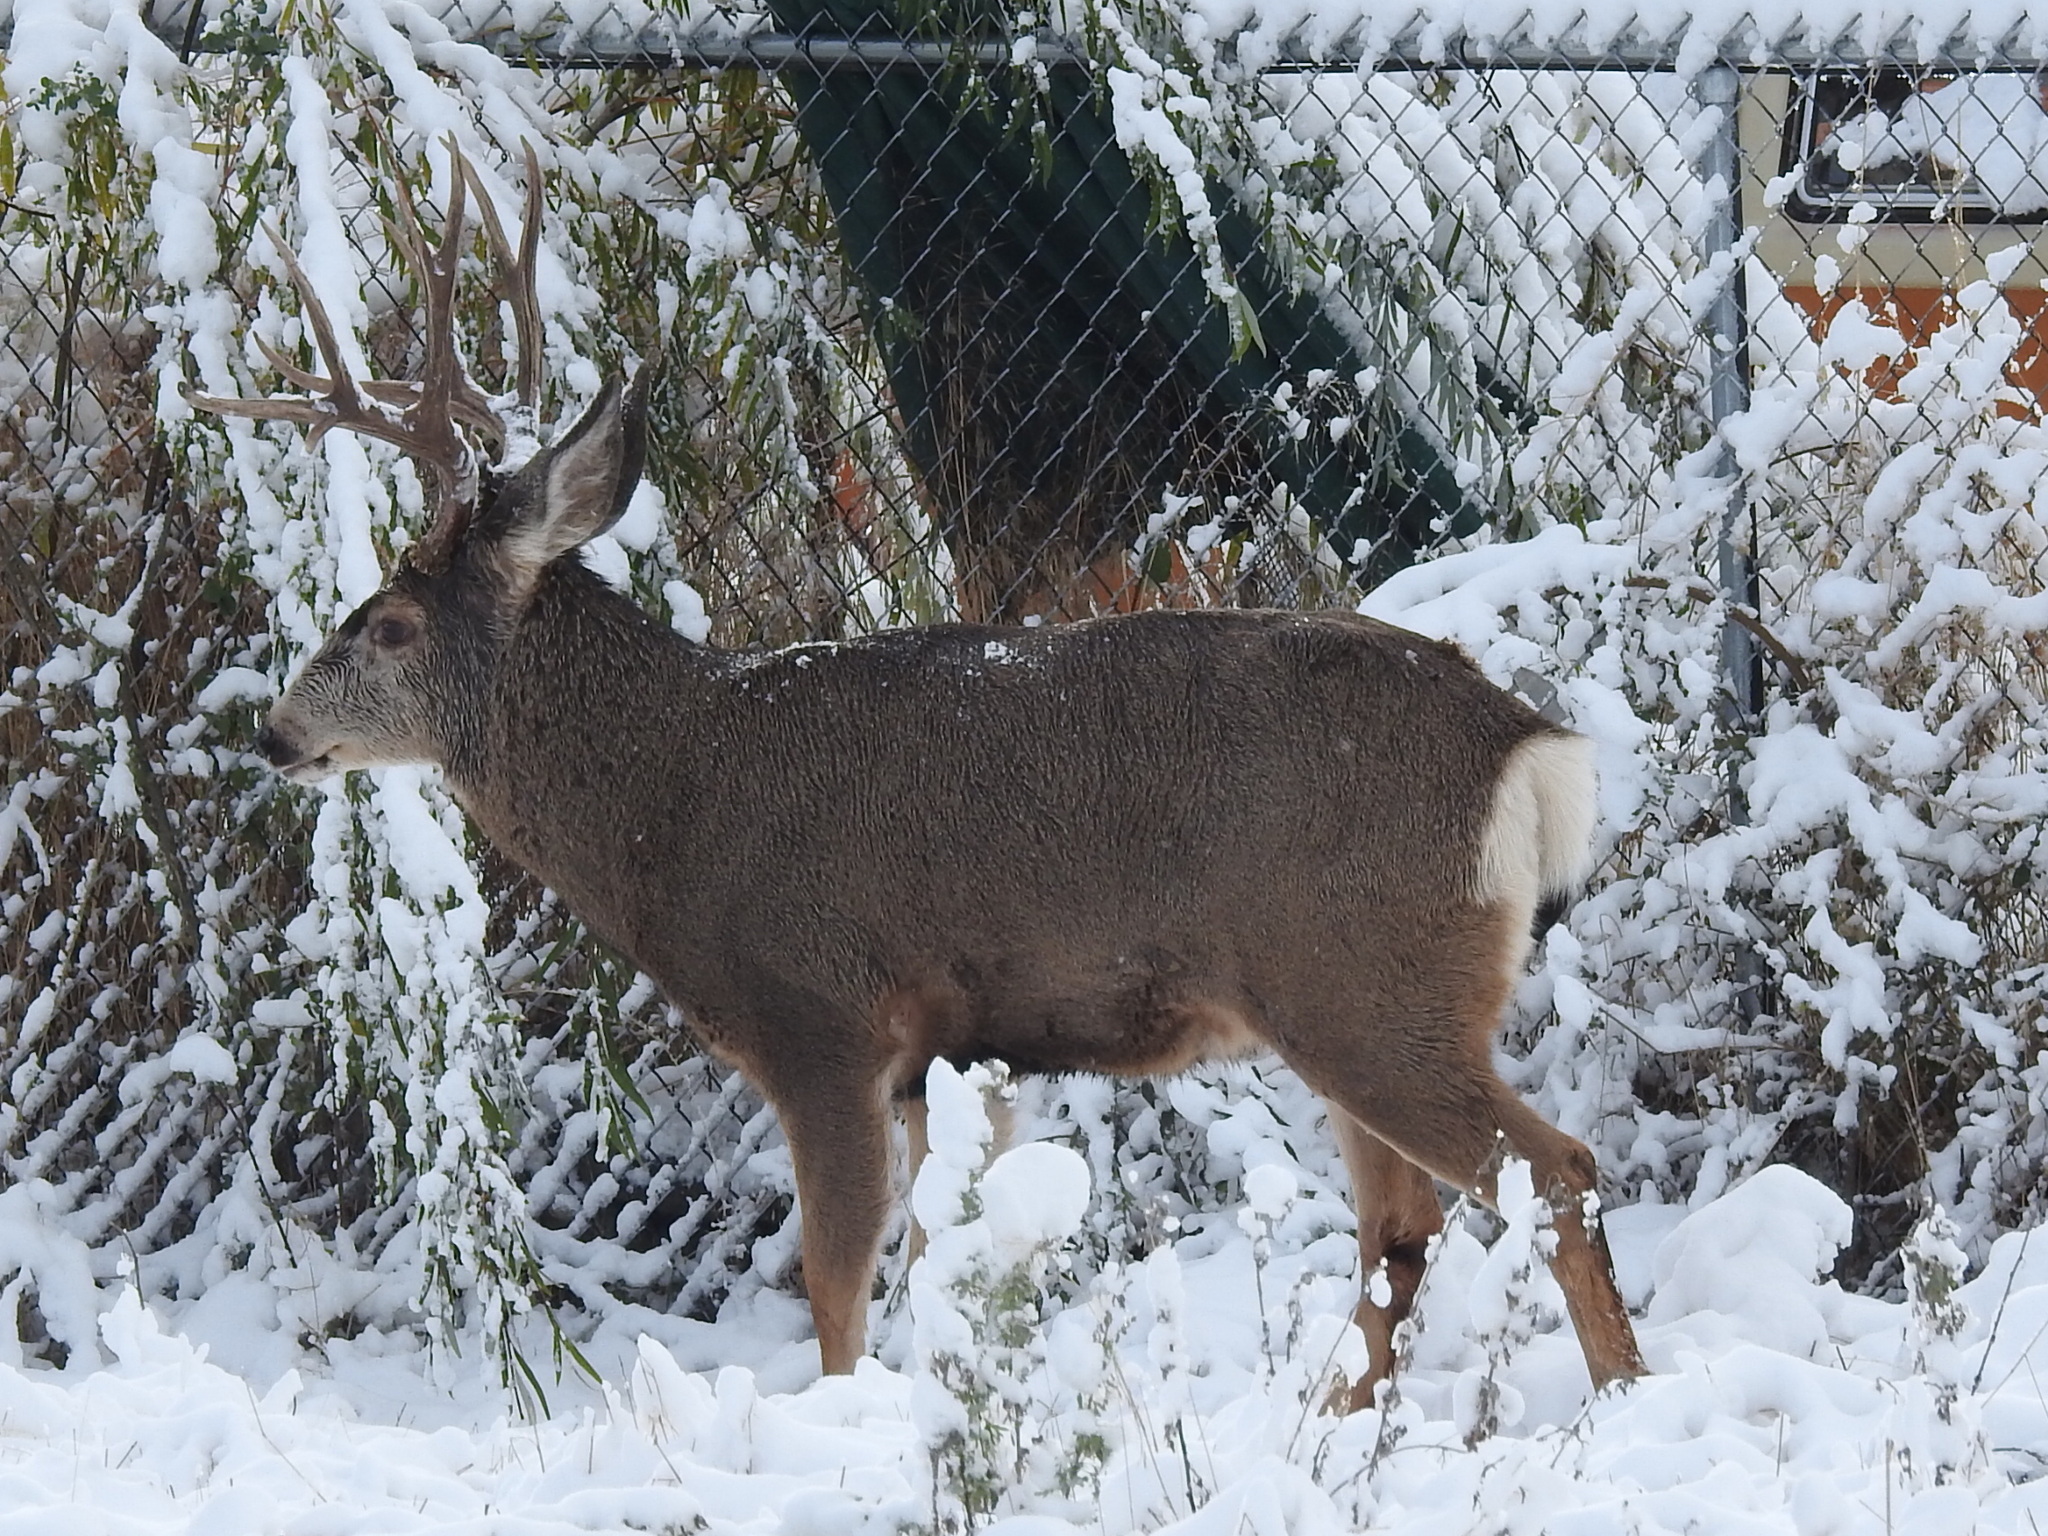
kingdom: Animalia
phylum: Chordata
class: Mammalia
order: Artiodactyla
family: Cervidae
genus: Odocoileus
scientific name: Odocoileus hemionus
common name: Mule deer
